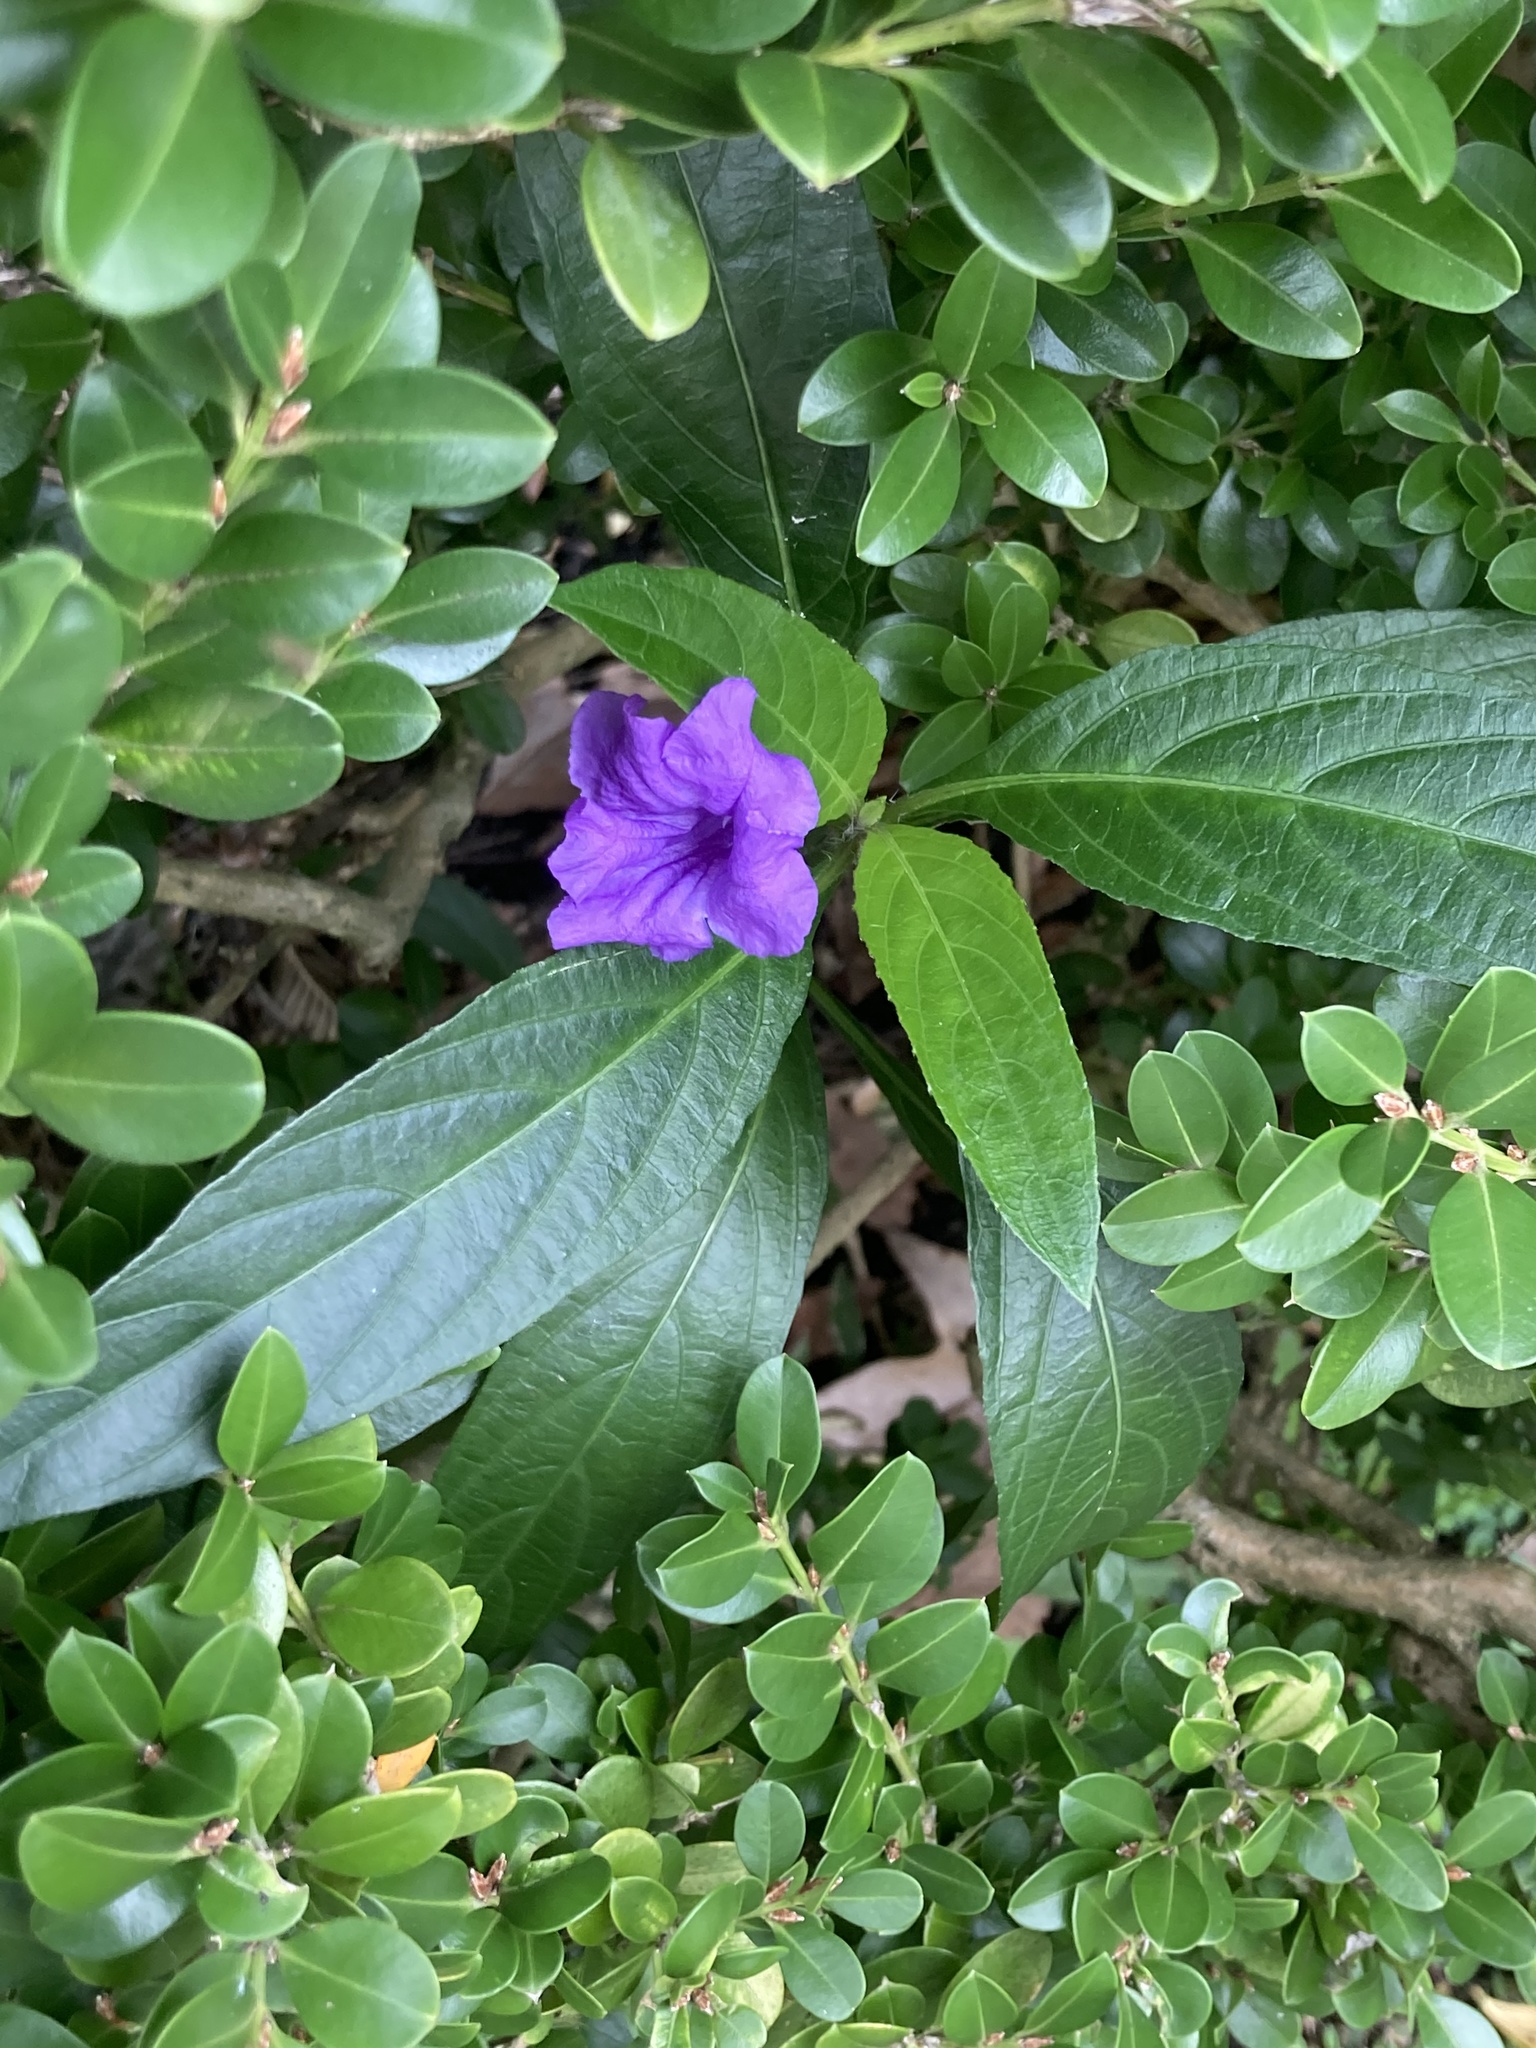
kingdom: Plantae
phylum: Tracheophyta
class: Magnoliopsida
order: Lamiales
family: Acanthaceae
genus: Ruellia
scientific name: Ruellia simplex
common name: Softseed wild petunia
